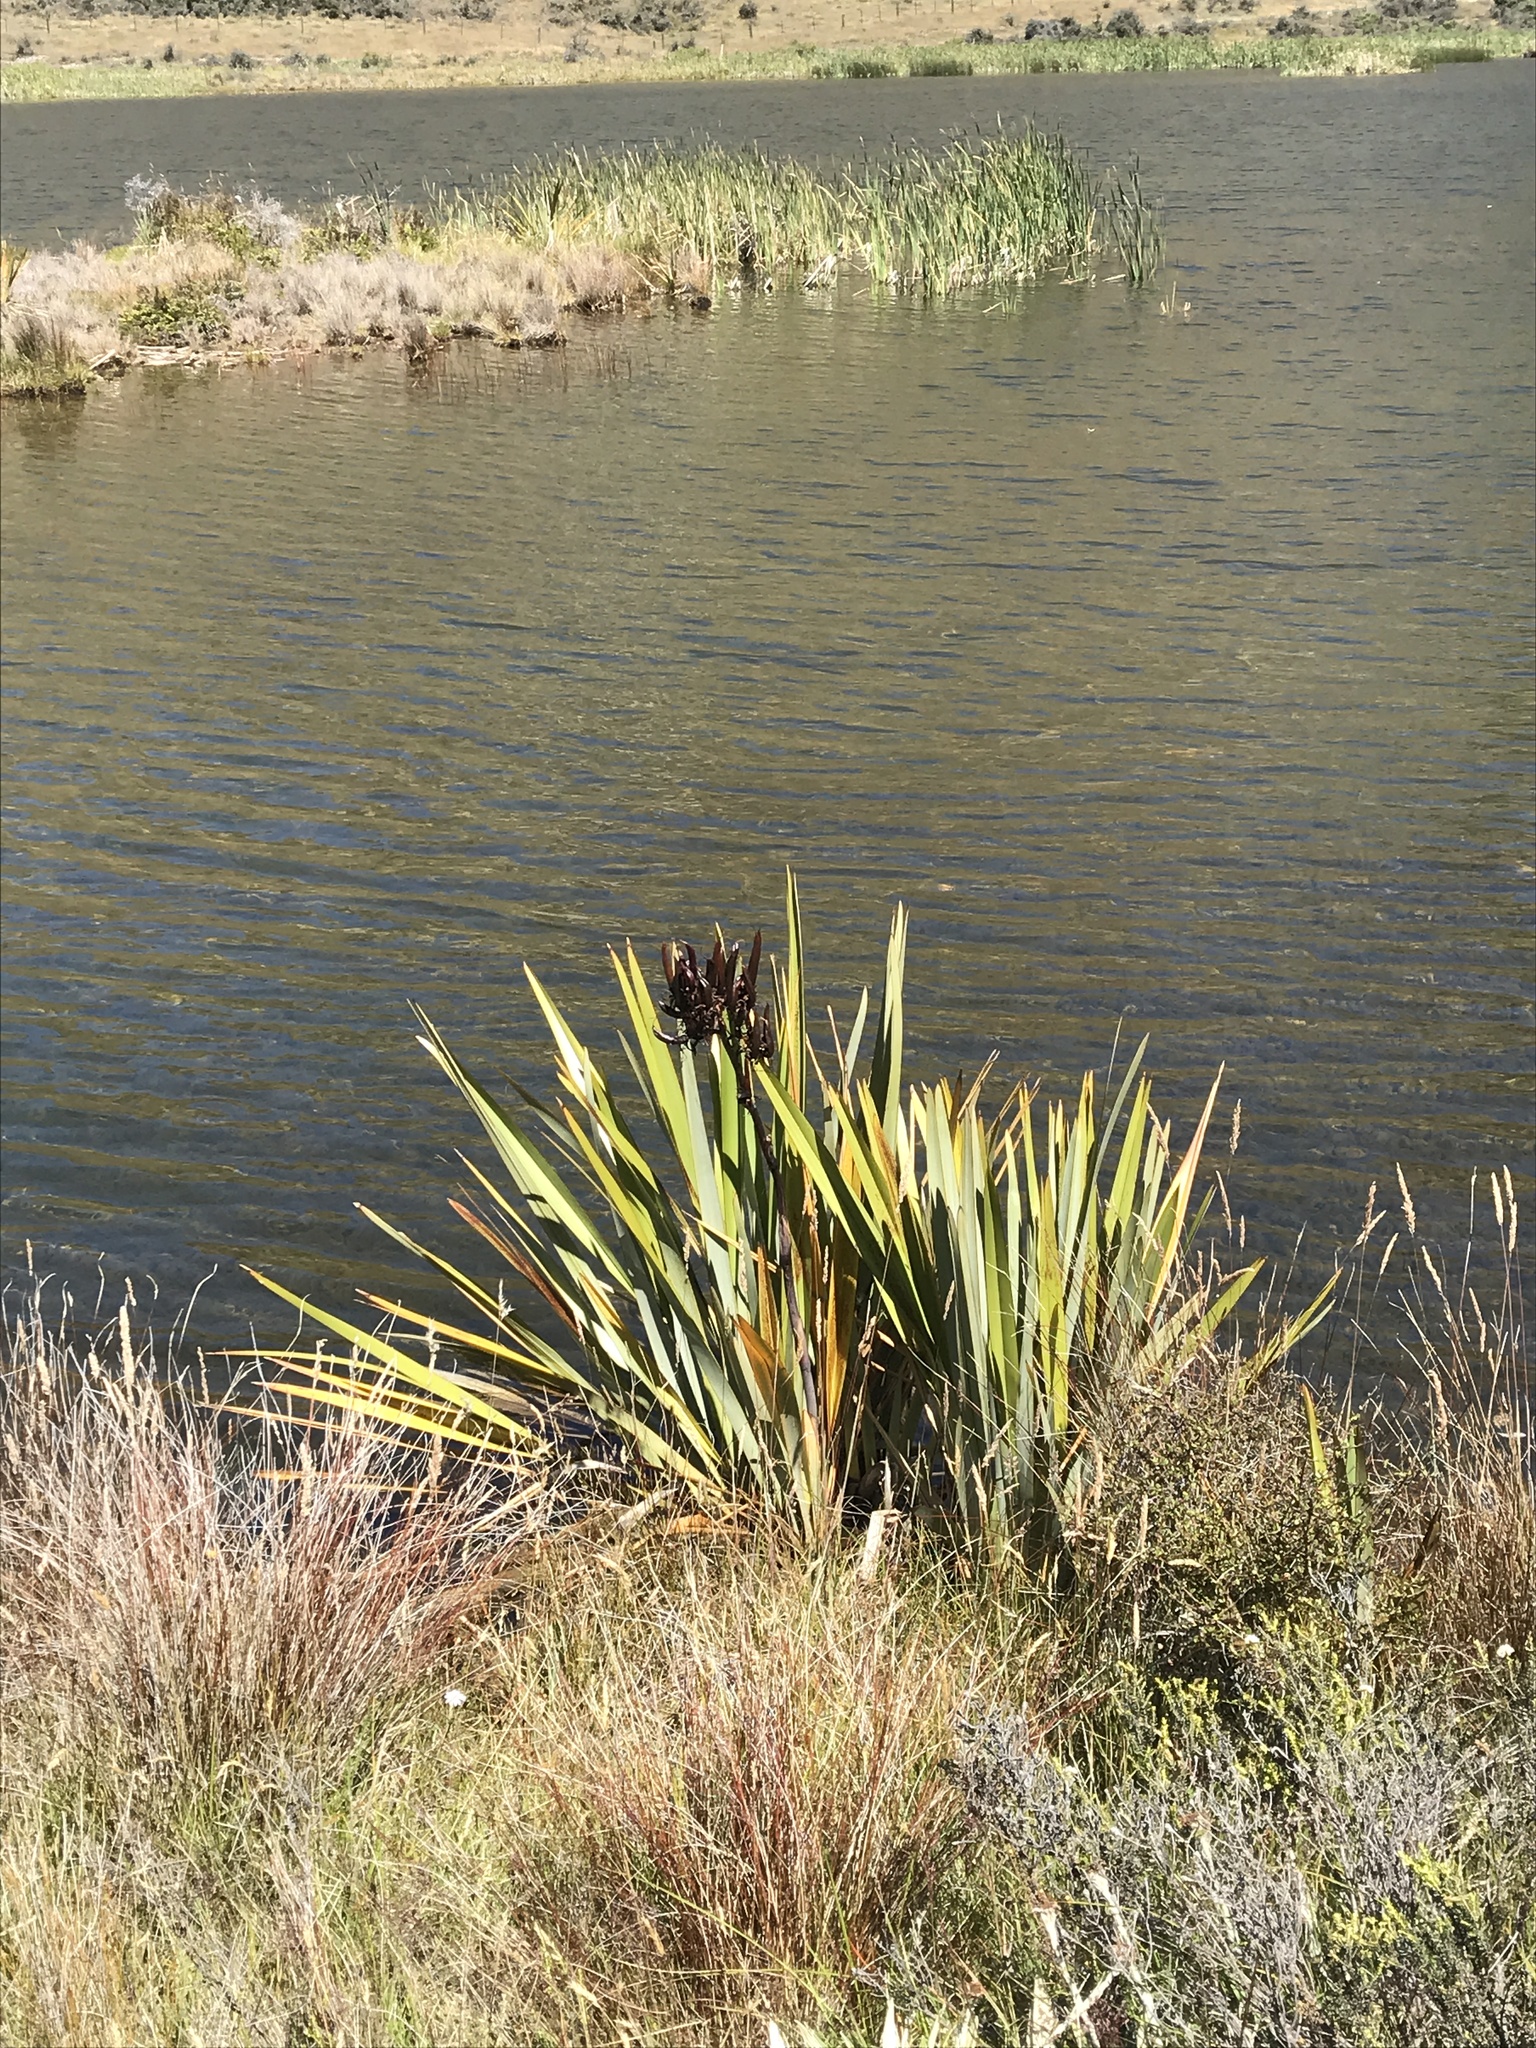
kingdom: Plantae
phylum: Tracheophyta
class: Liliopsida
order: Asparagales
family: Asphodelaceae
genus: Phormium
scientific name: Phormium tenax
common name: New zealand flax
